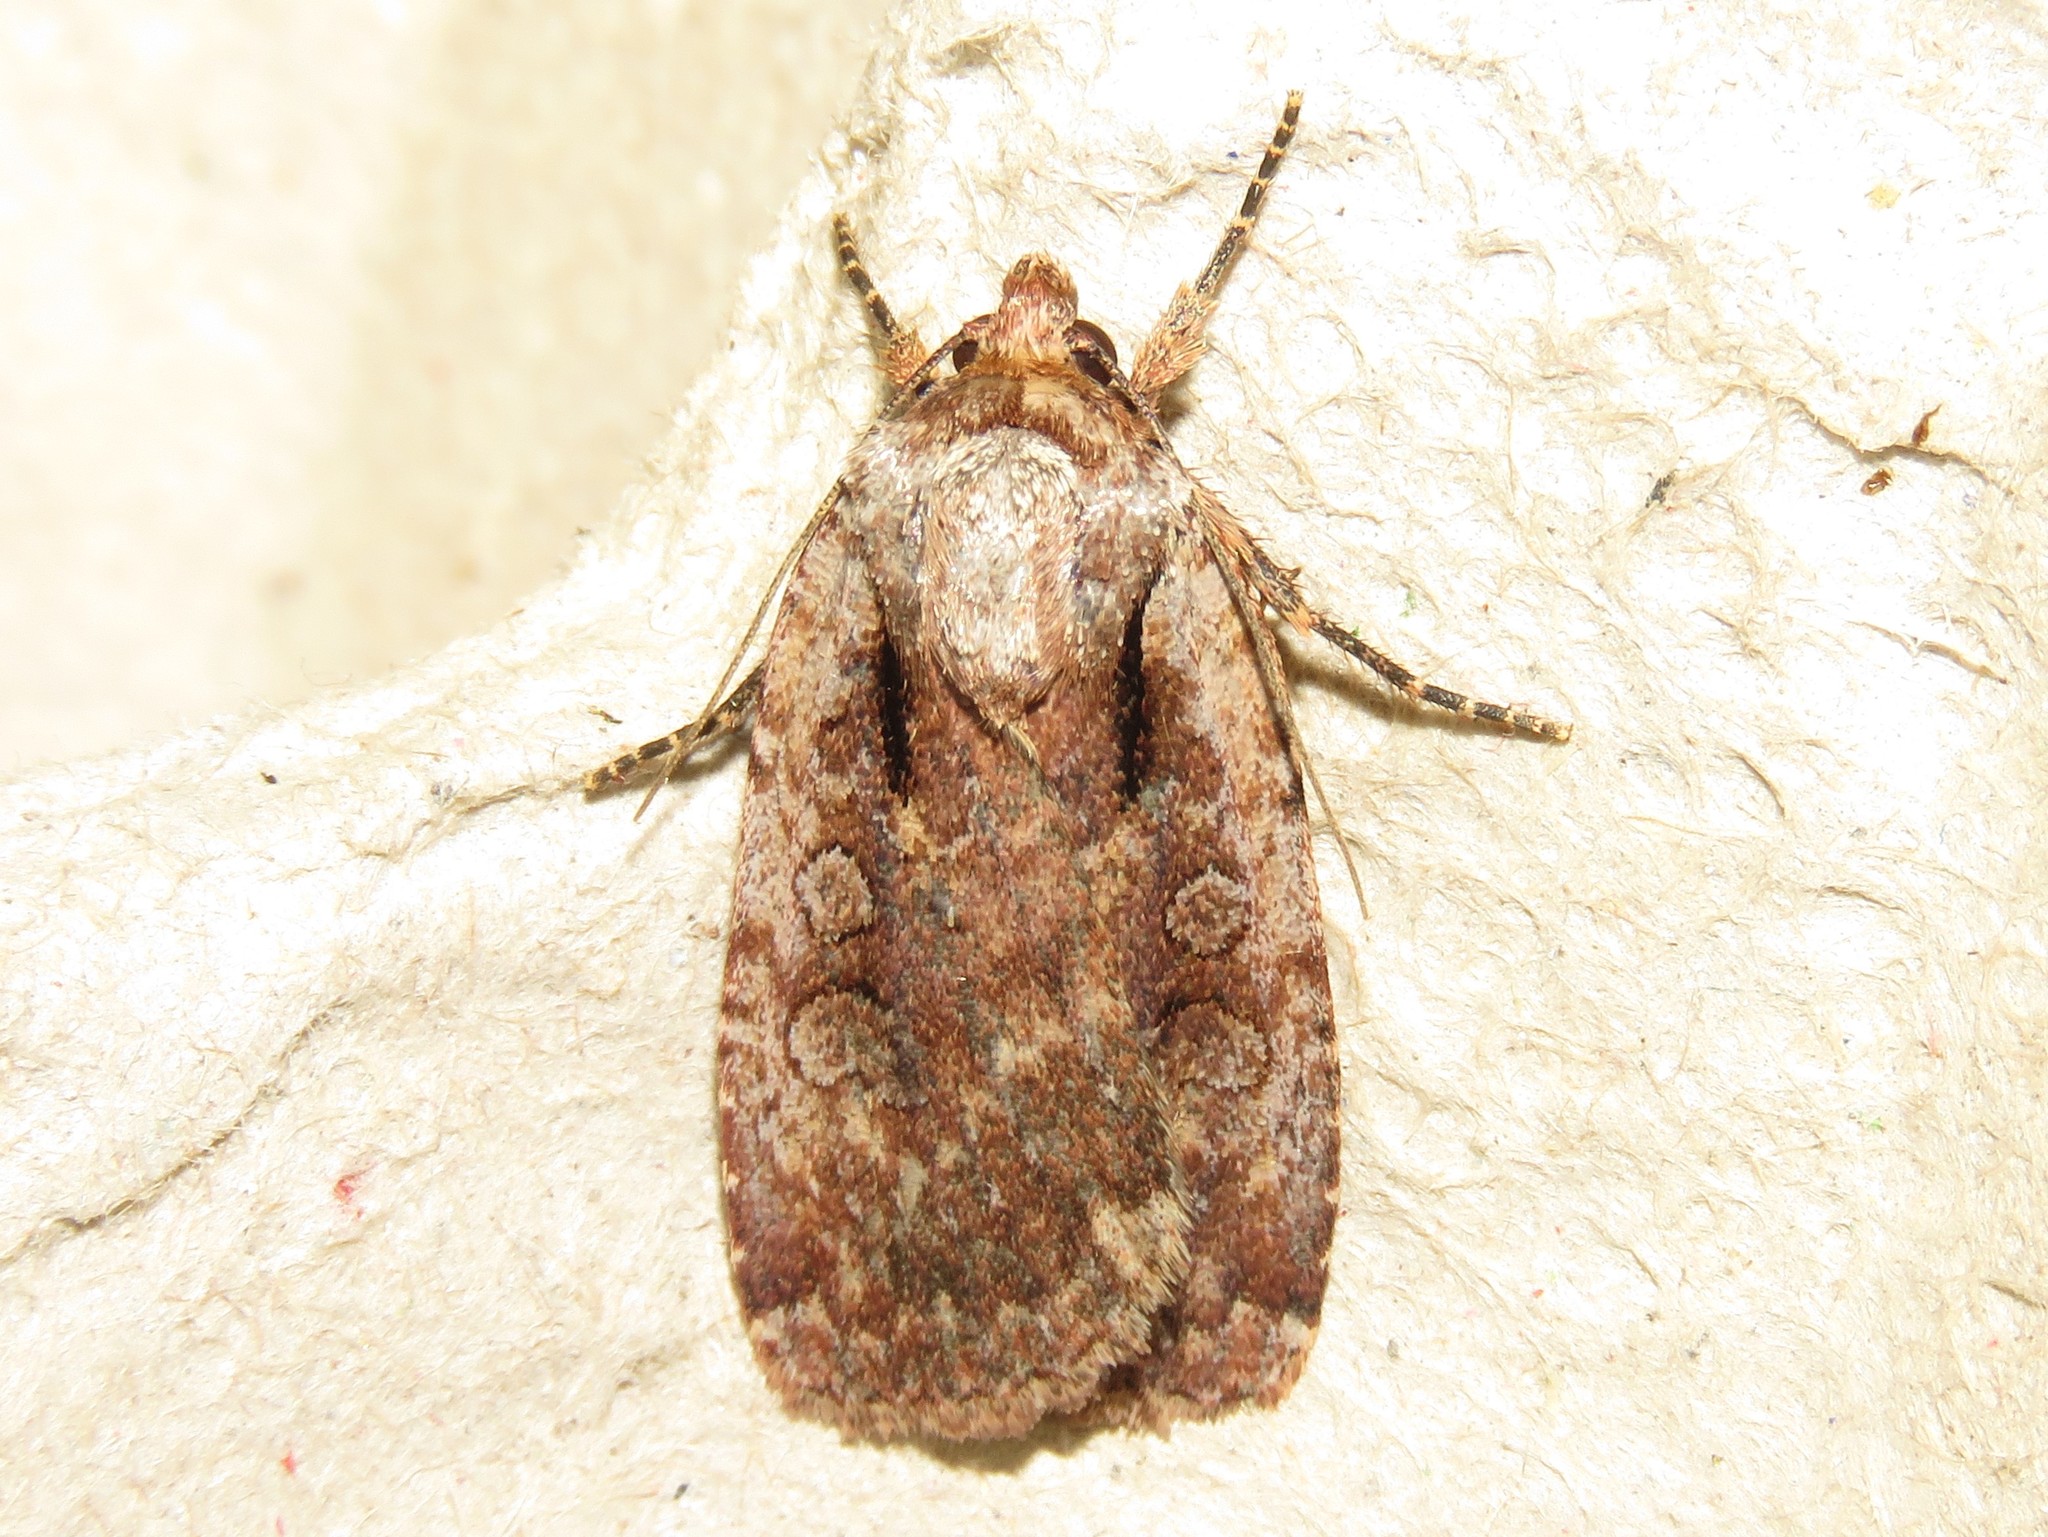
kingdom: Animalia
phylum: Arthropoda
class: Insecta
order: Lepidoptera
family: Noctuidae
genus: Eueretagrotis
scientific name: Eueretagrotis attentus
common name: Attentive dart
